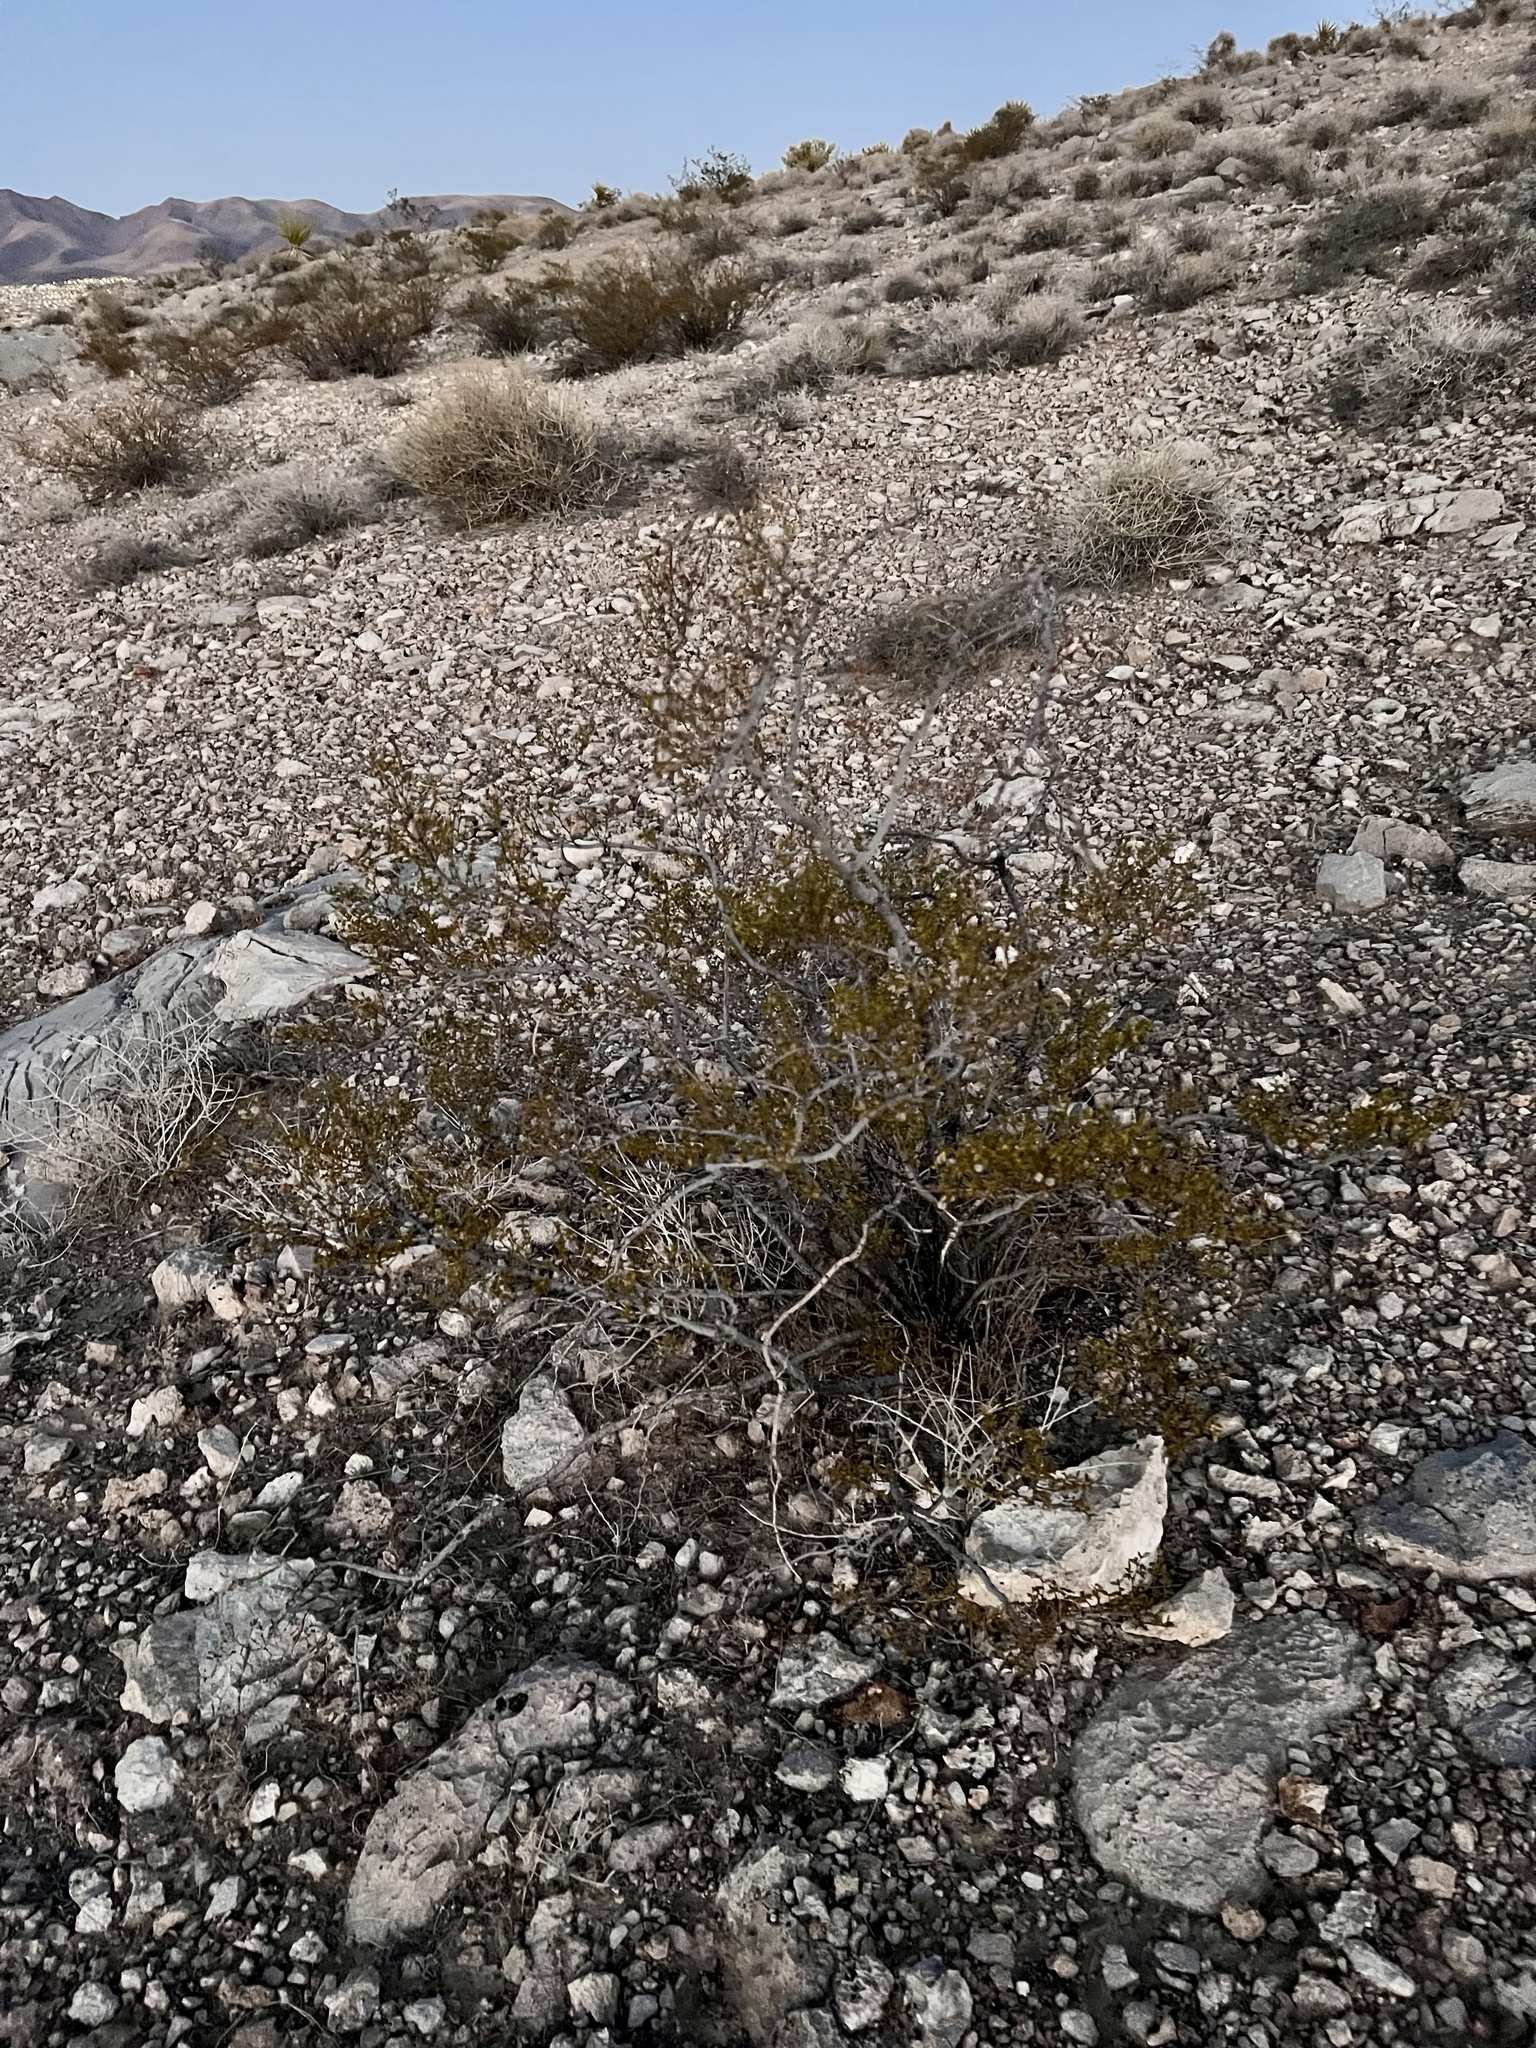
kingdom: Plantae
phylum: Tracheophyta
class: Magnoliopsida
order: Zygophyllales
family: Zygophyllaceae
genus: Larrea
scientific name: Larrea tridentata
